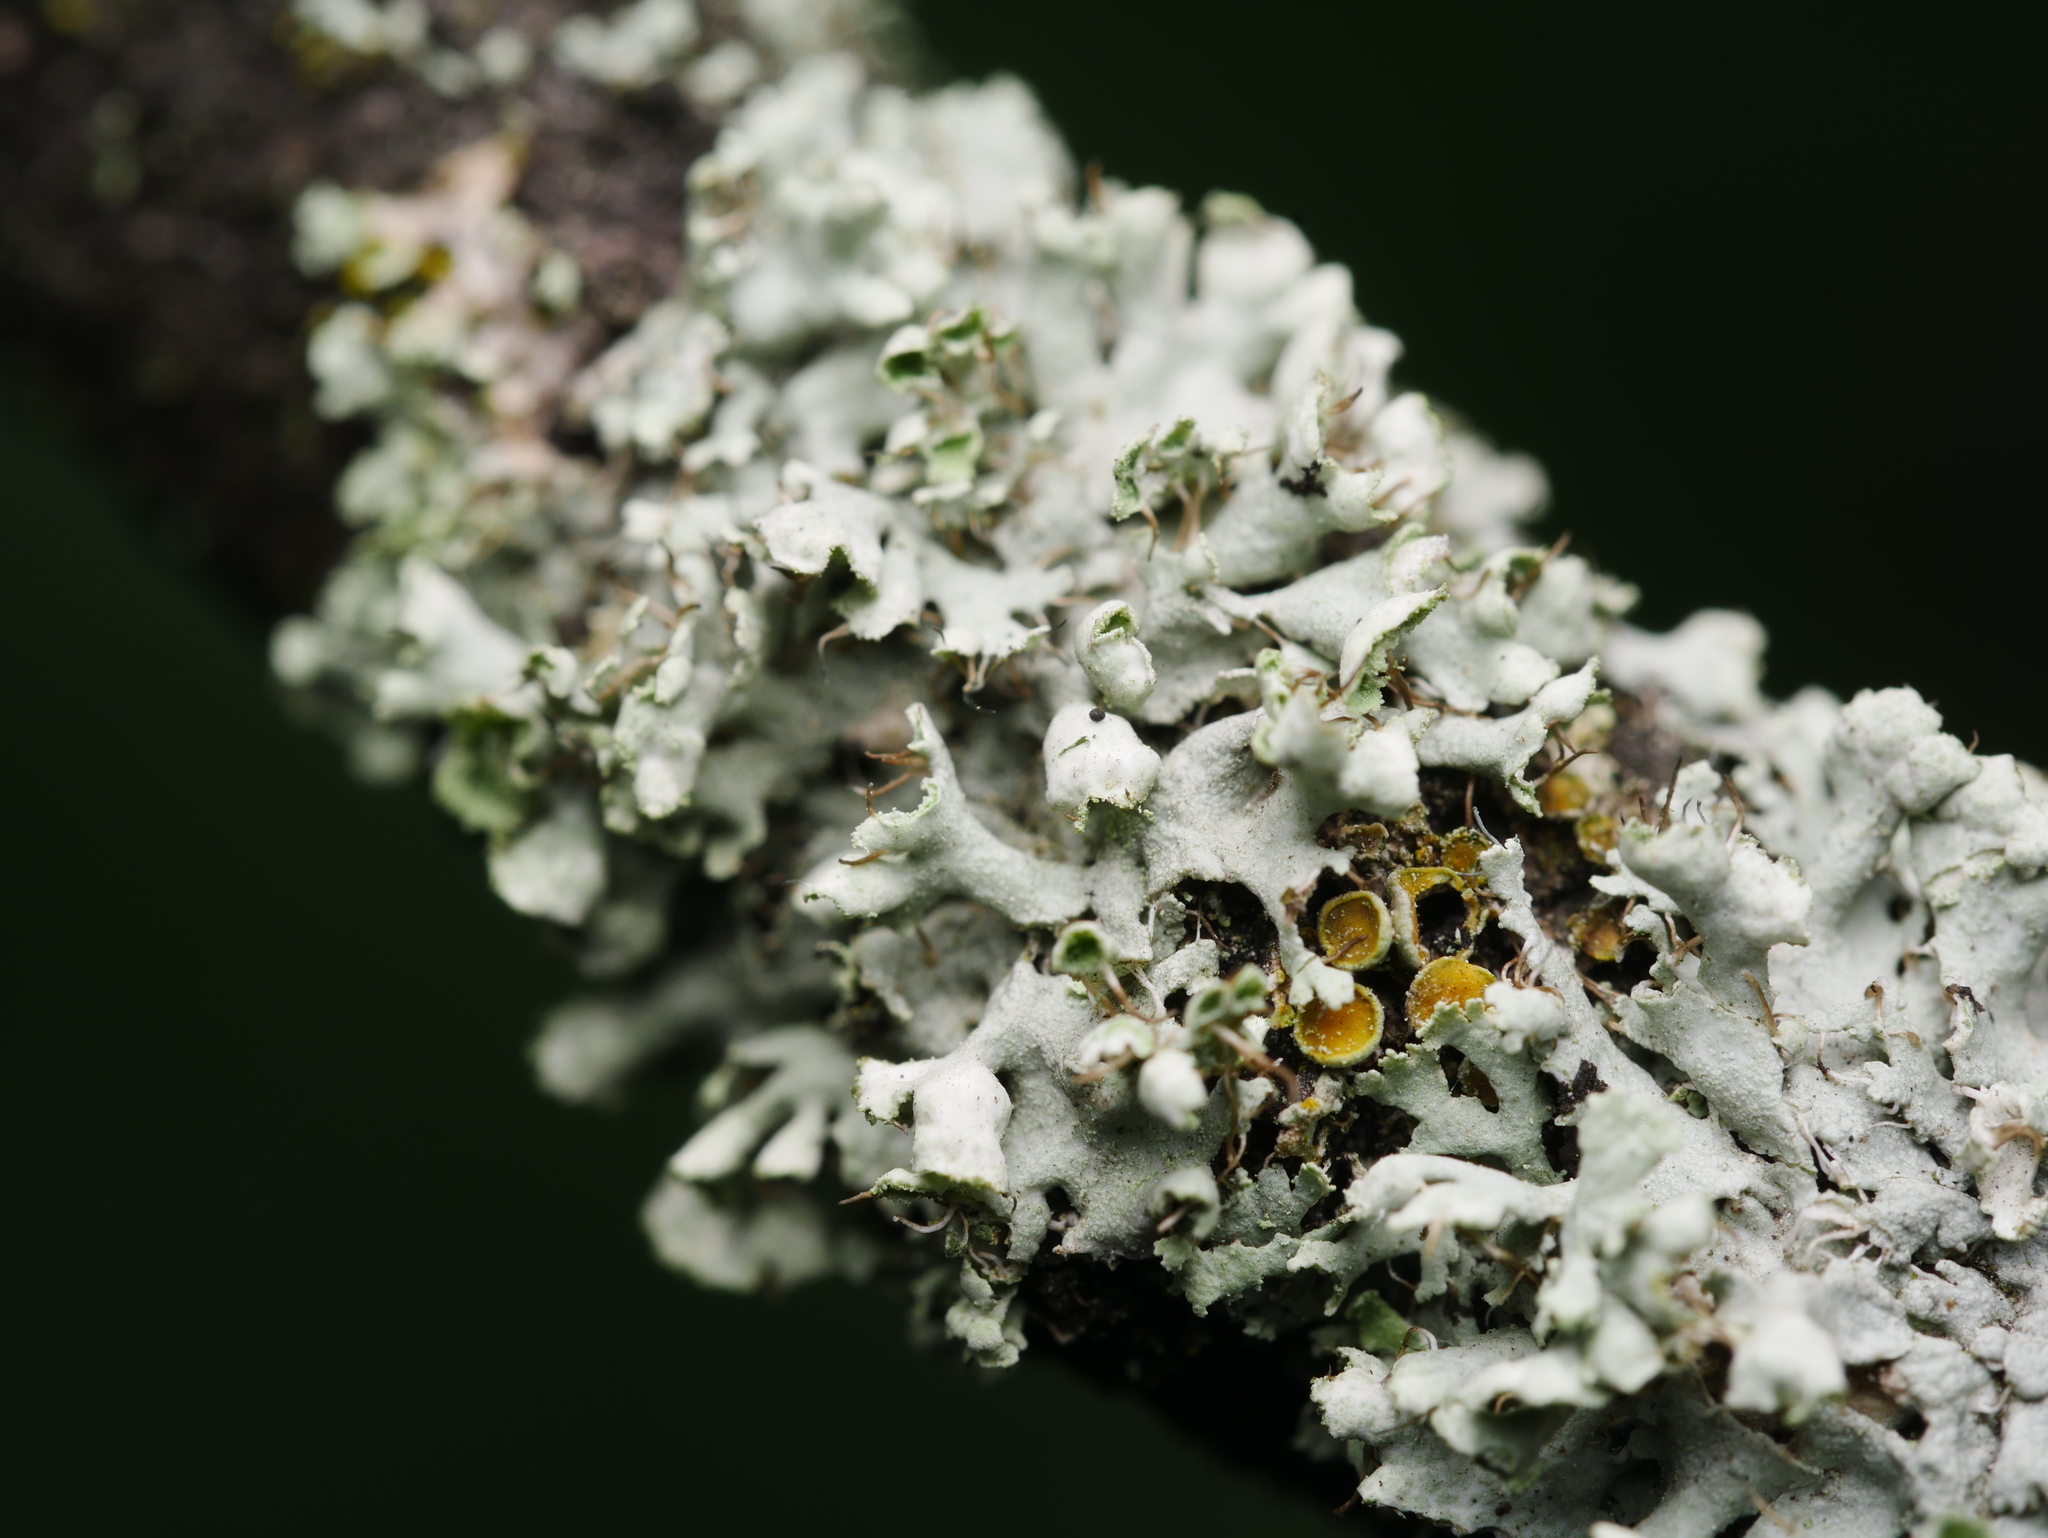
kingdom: Fungi
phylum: Ascomycota
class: Lecanoromycetes
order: Caliciales
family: Physciaceae
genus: Physcia
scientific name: Physcia adscendens
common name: Hooded rosette lichen
